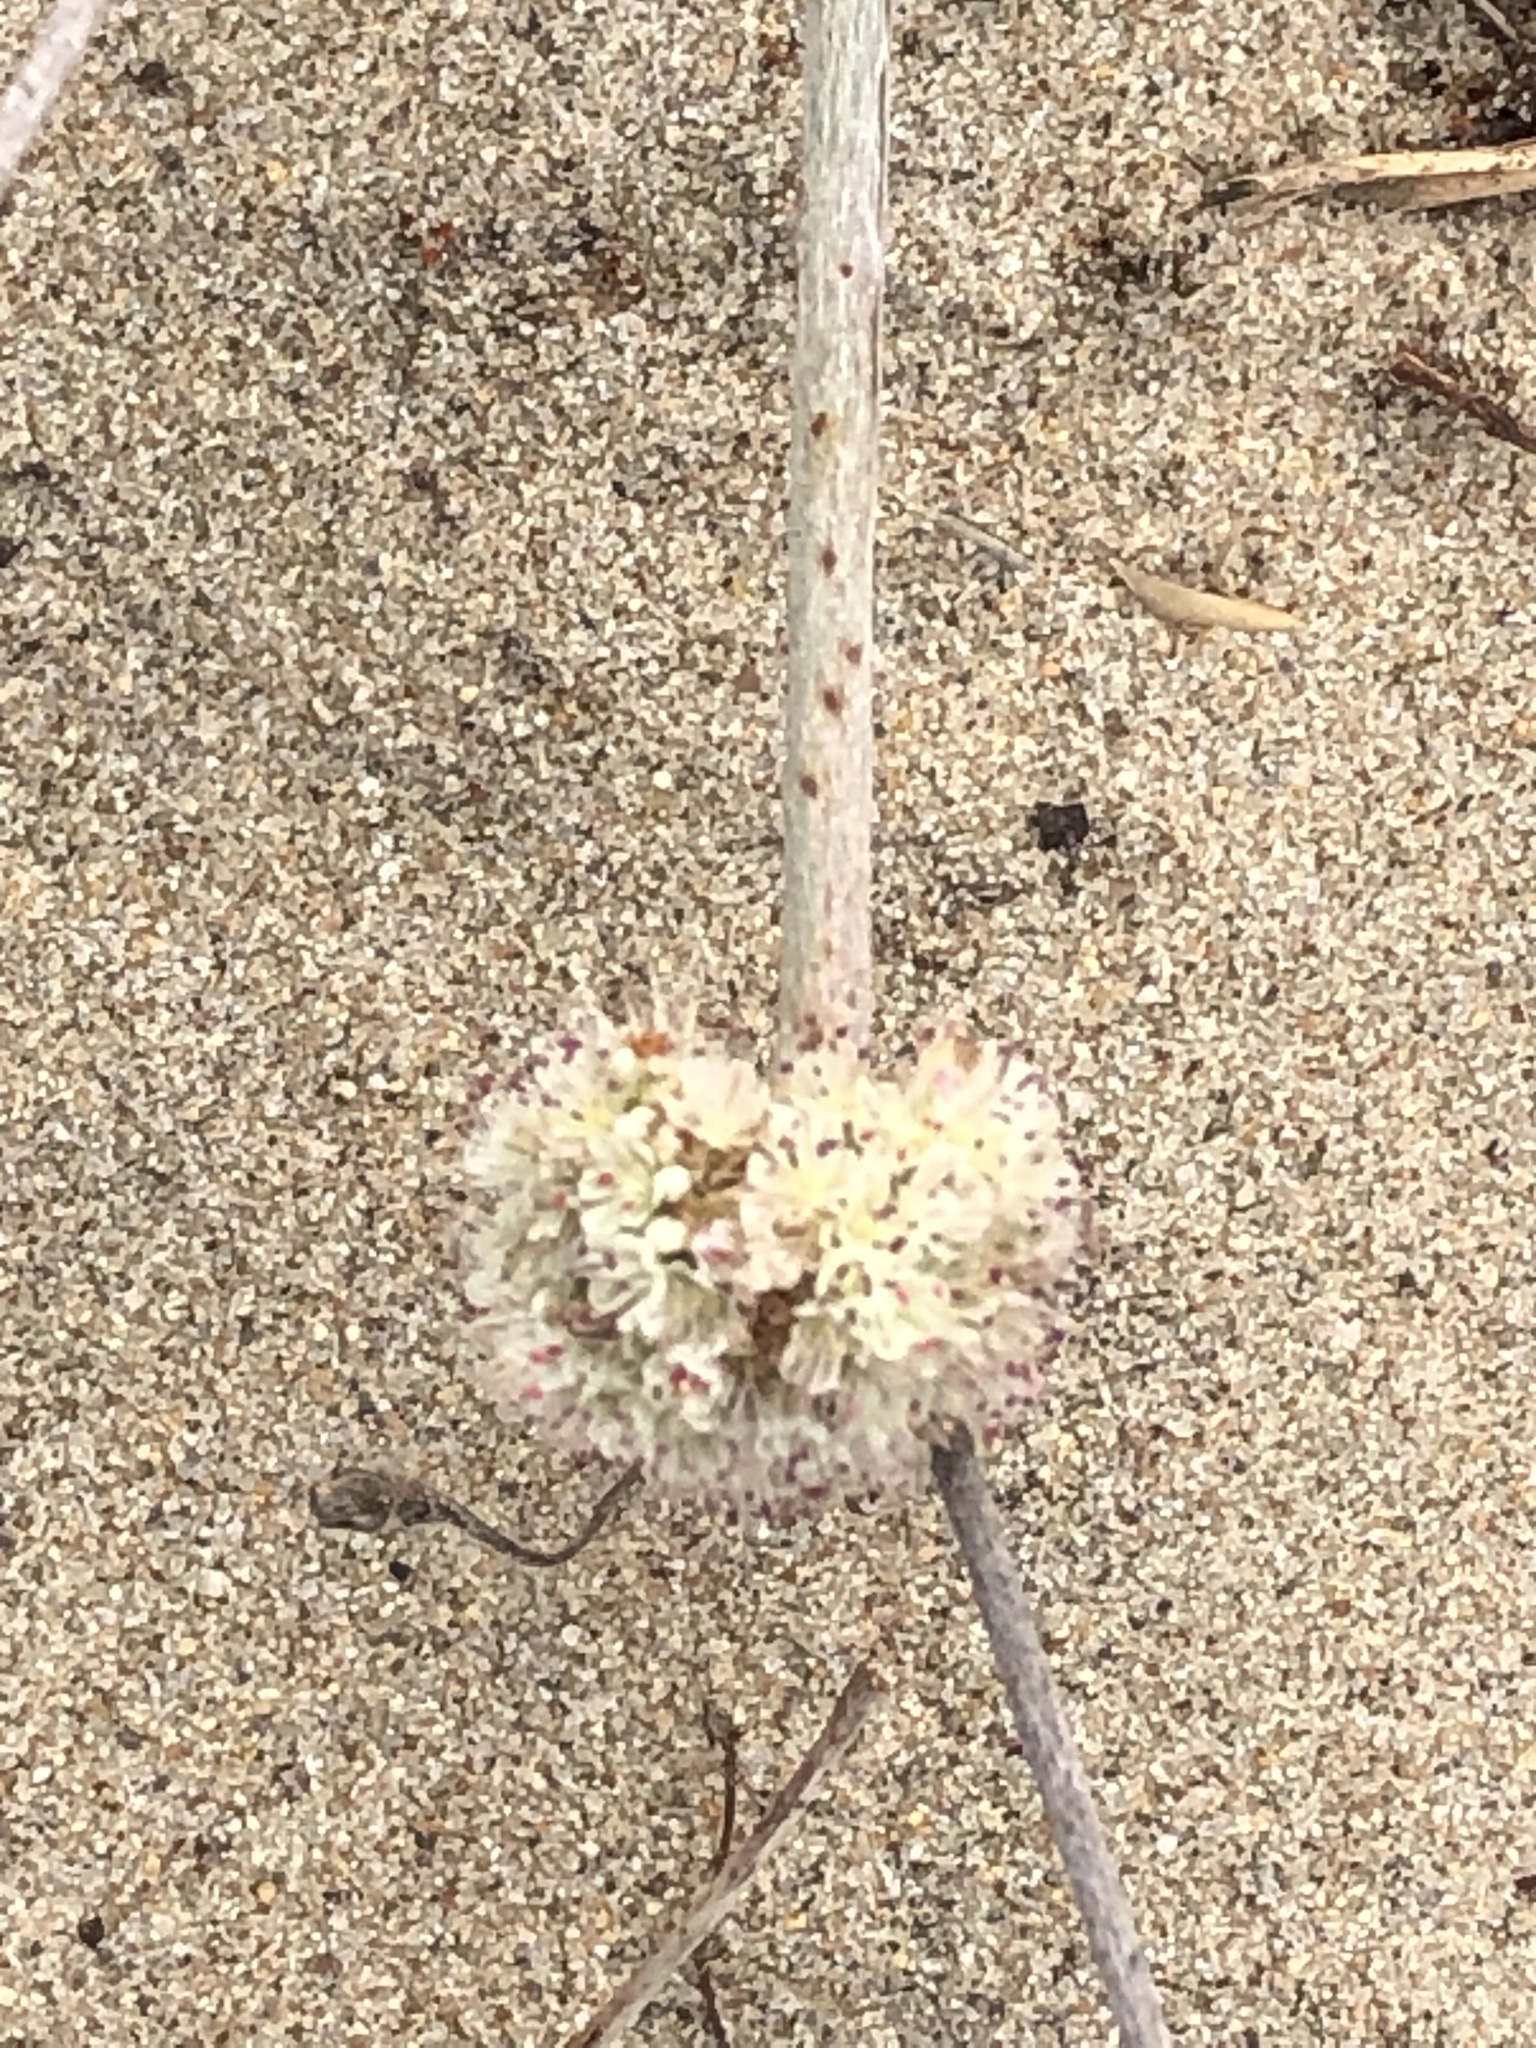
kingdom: Plantae
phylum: Tracheophyta
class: Magnoliopsida
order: Caryophyllales
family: Polygonaceae
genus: Eriogonum
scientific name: Eriogonum latifolium
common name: Seaside wild buckwheat
